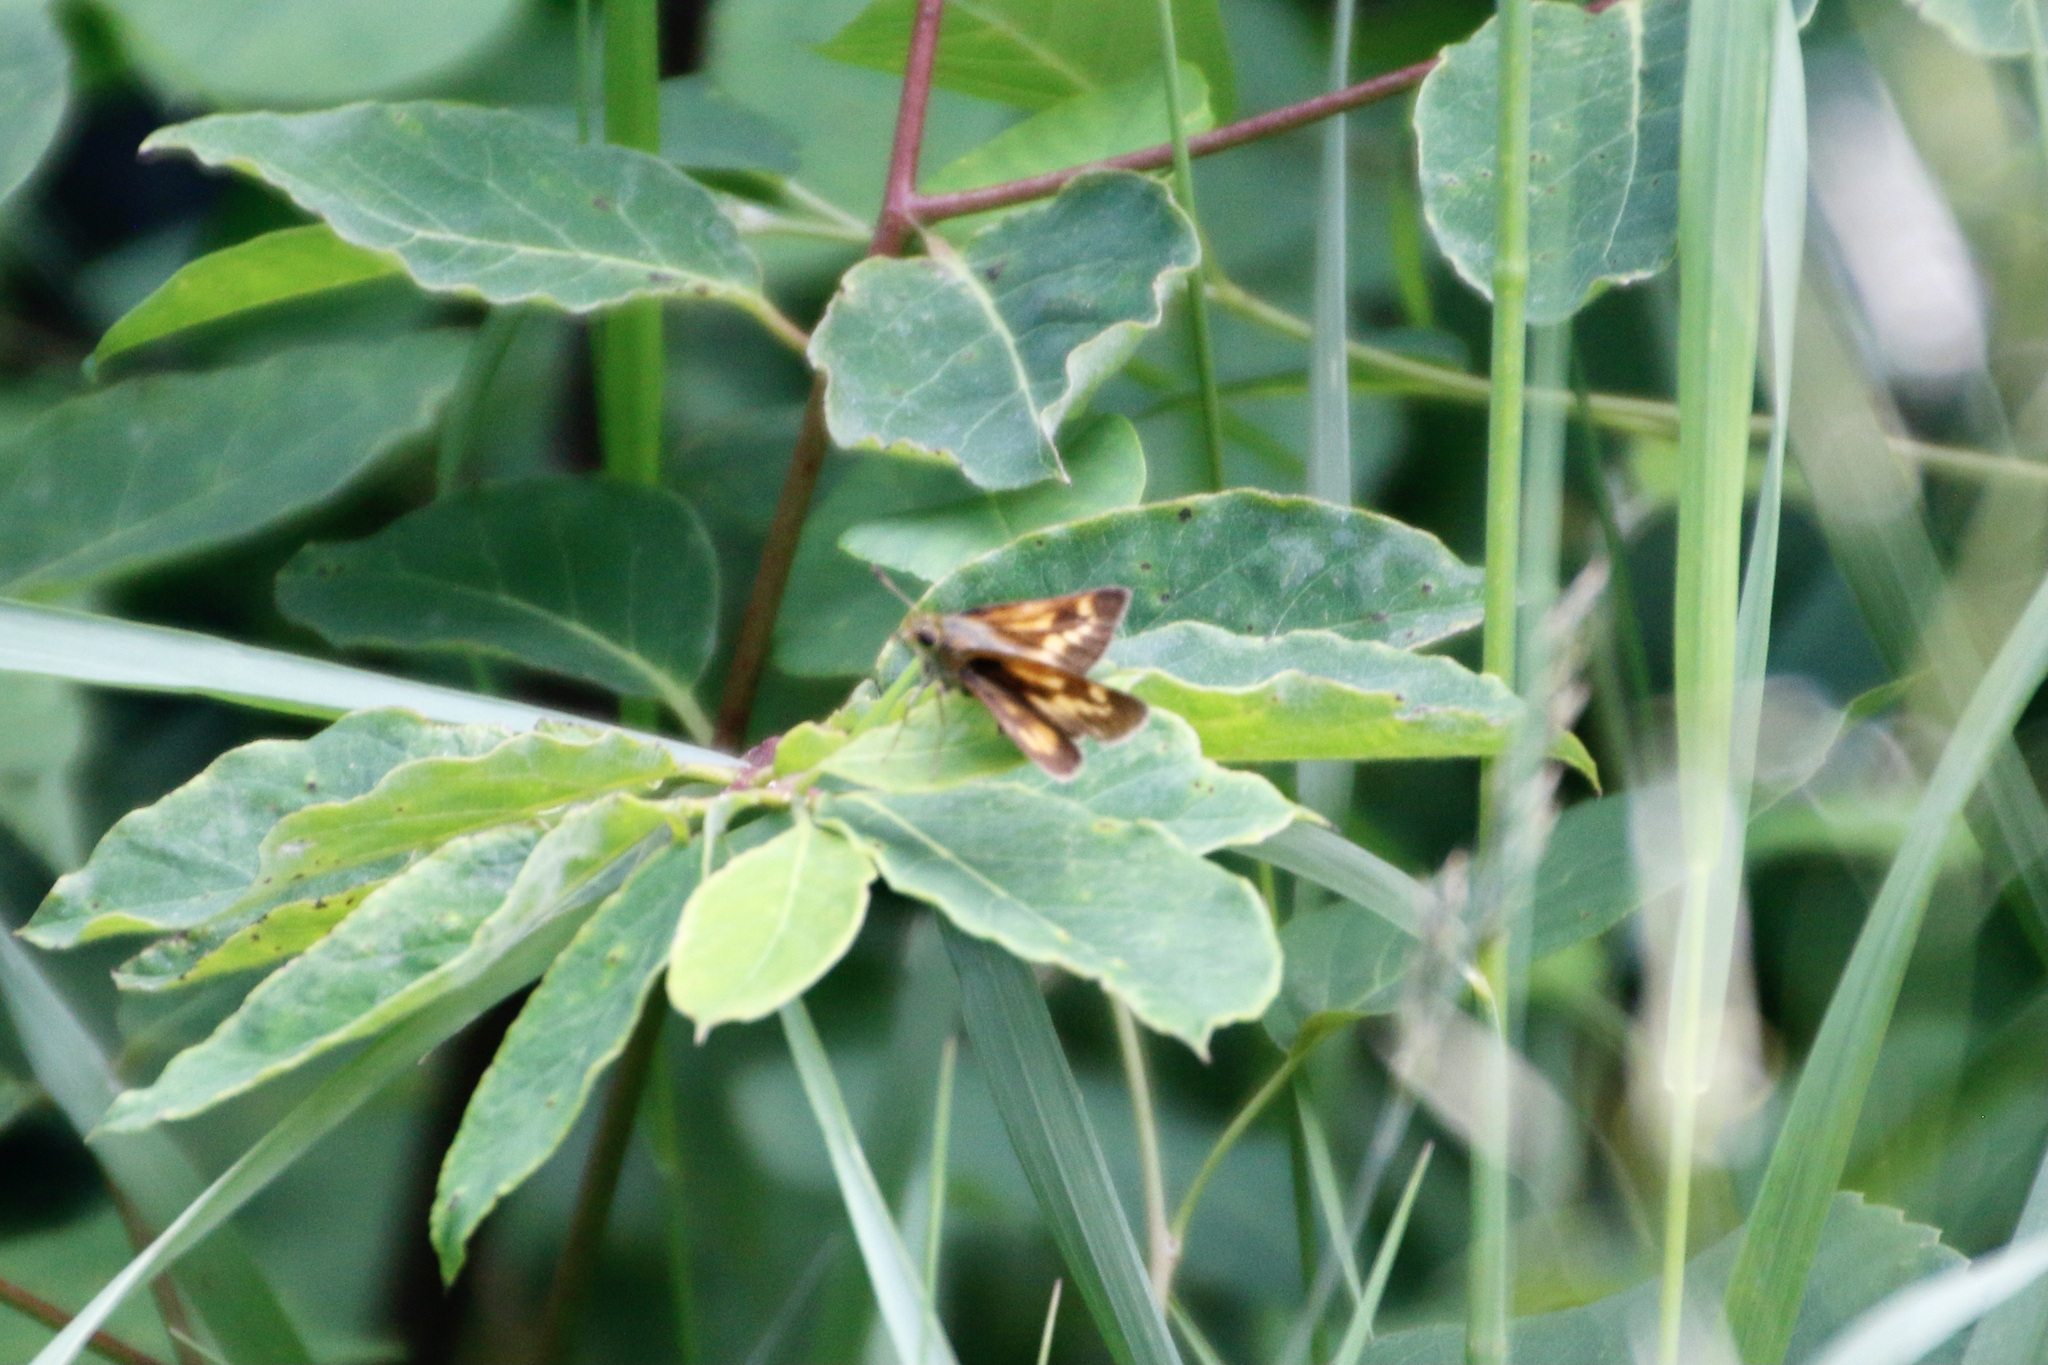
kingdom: Animalia
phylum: Arthropoda
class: Insecta
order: Lepidoptera
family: Hesperiidae
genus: Polites
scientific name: Polites mystic
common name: Long dash
